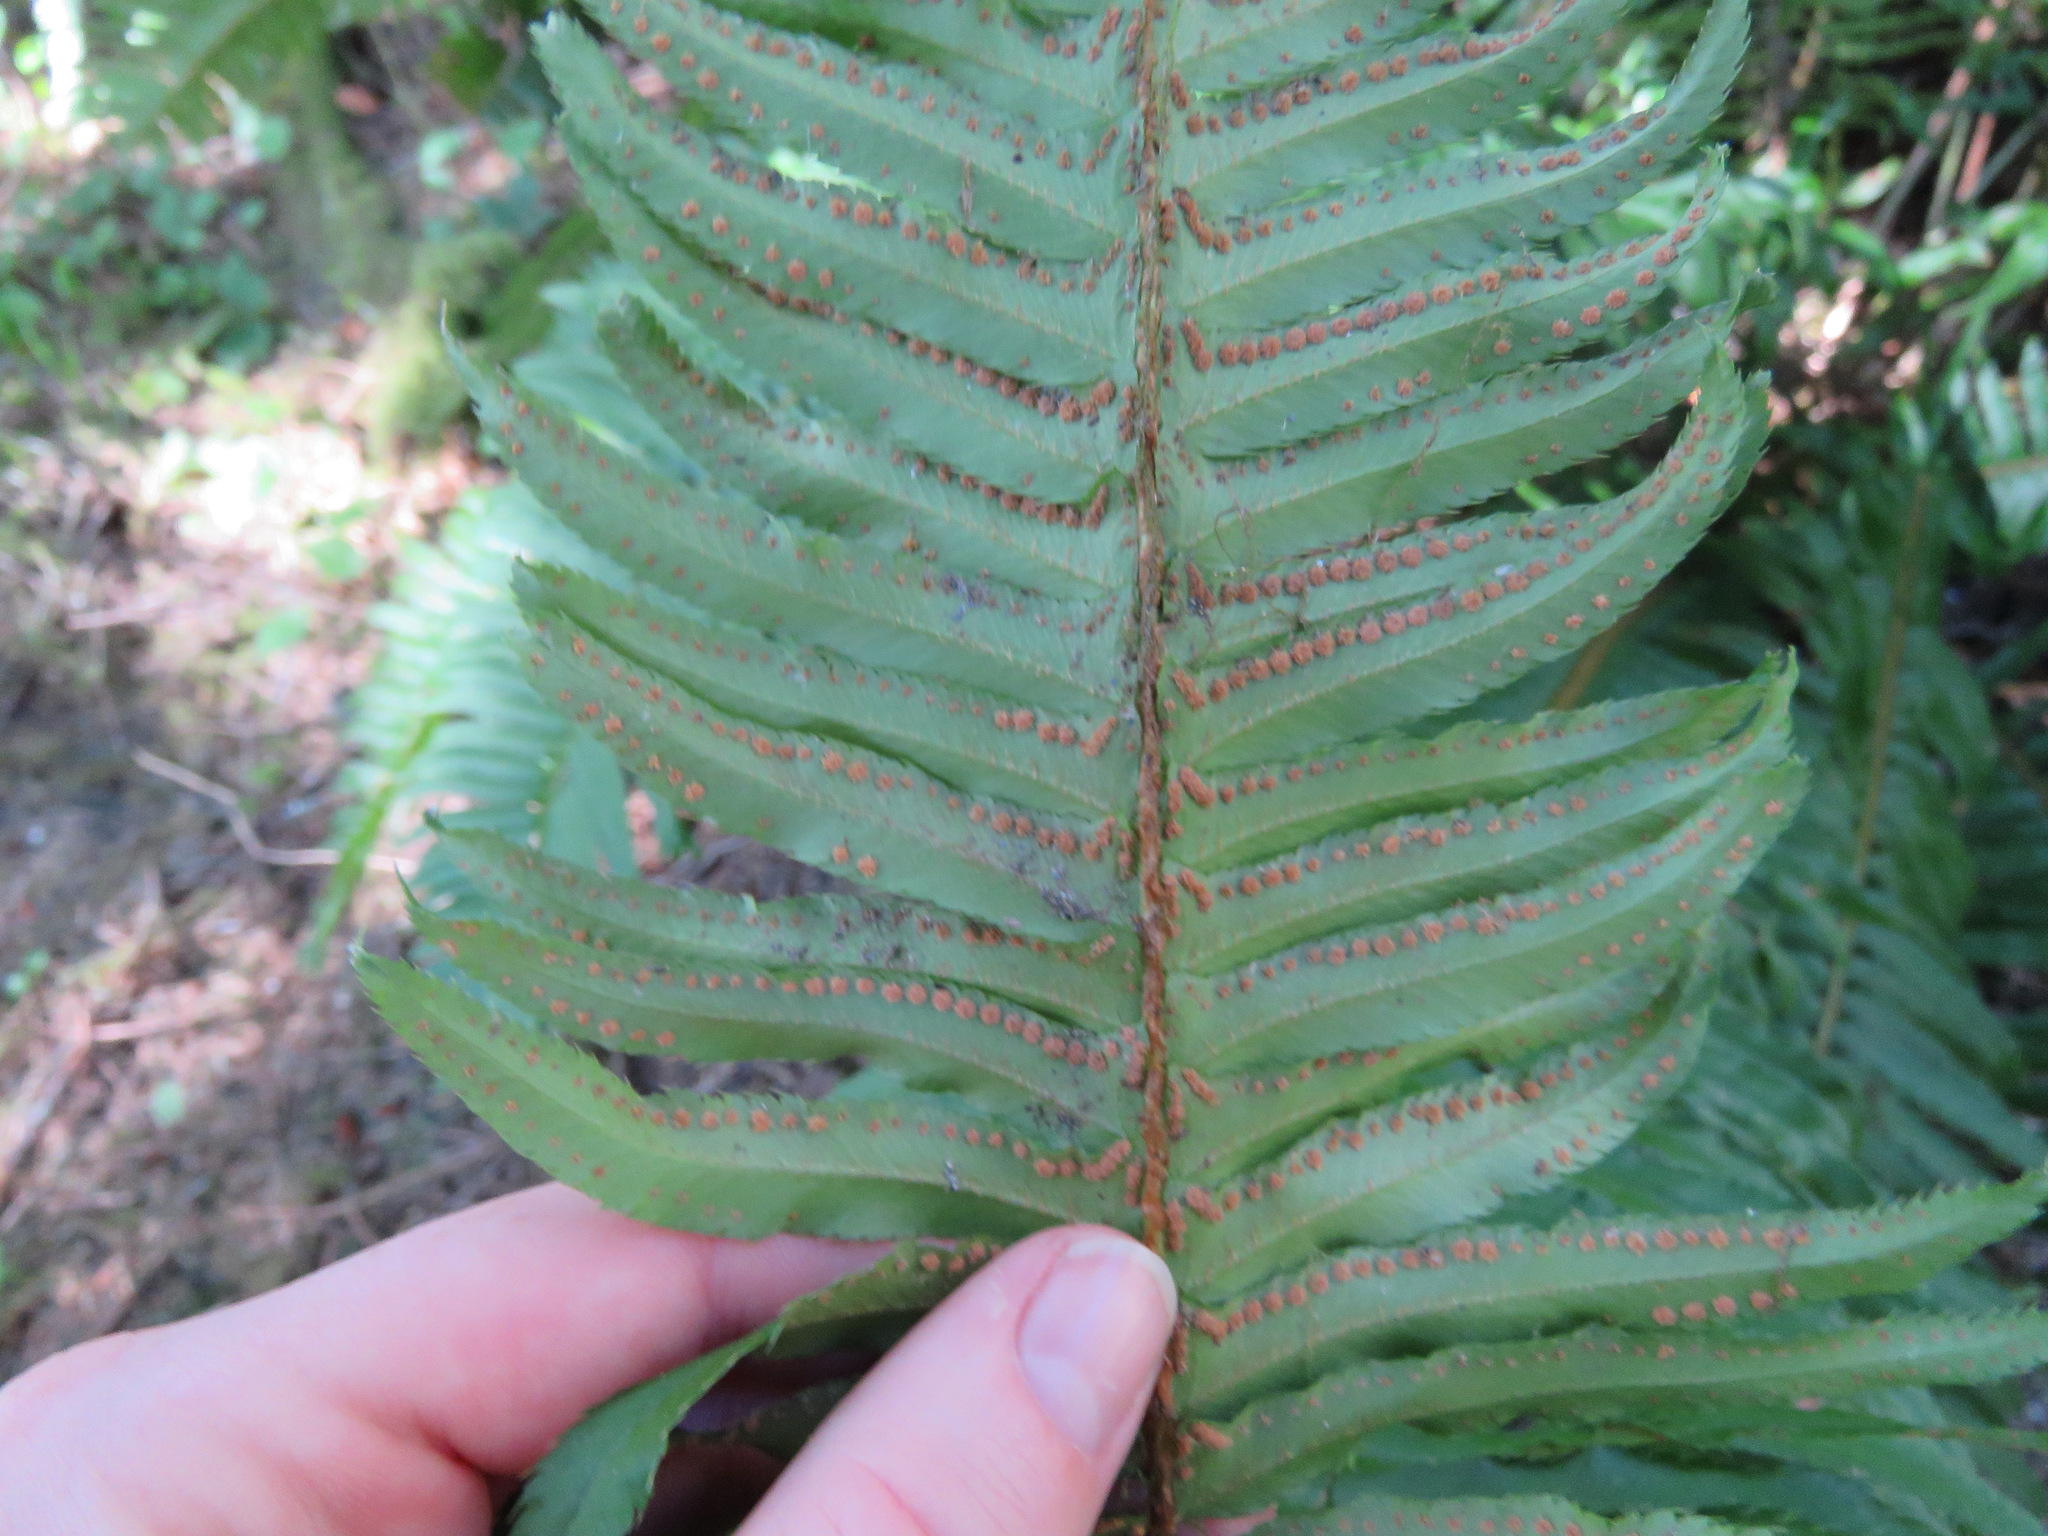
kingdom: Plantae
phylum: Tracheophyta
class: Polypodiopsida
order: Polypodiales
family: Dryopteridaceae
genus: Polystichum
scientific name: Polystichum munitum
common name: Western sword-fern
